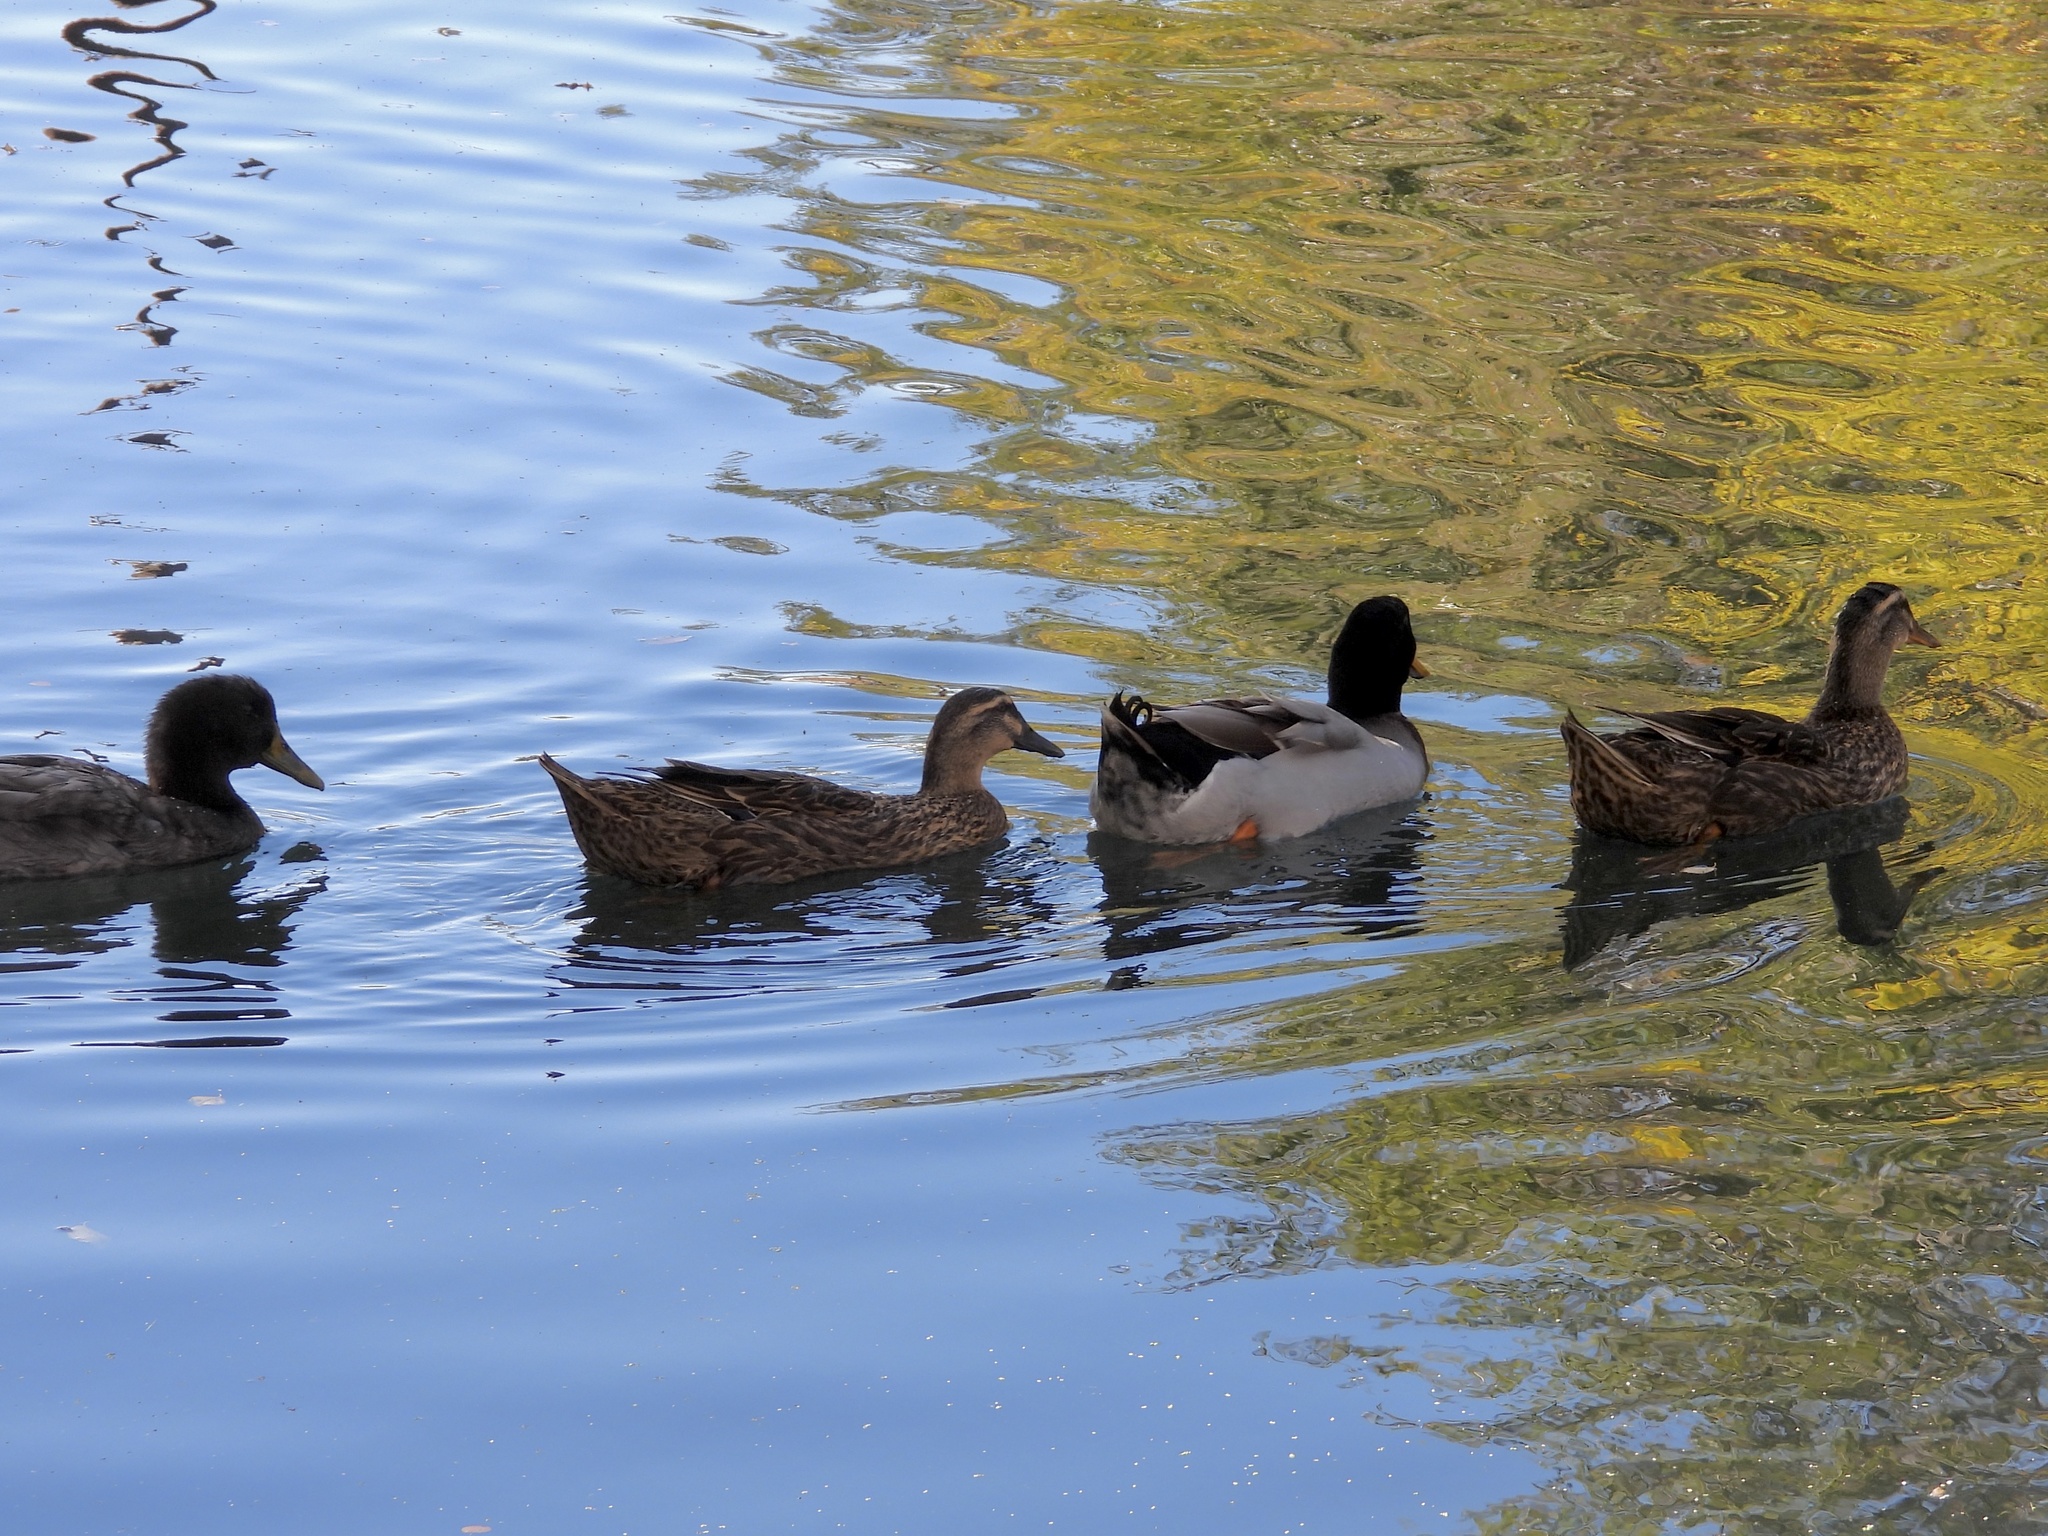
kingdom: Animalia
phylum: Chordata
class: Aves
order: Anseriformes
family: Anatidae
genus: Anas
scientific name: Anas platyrhynchos
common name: Mallard
